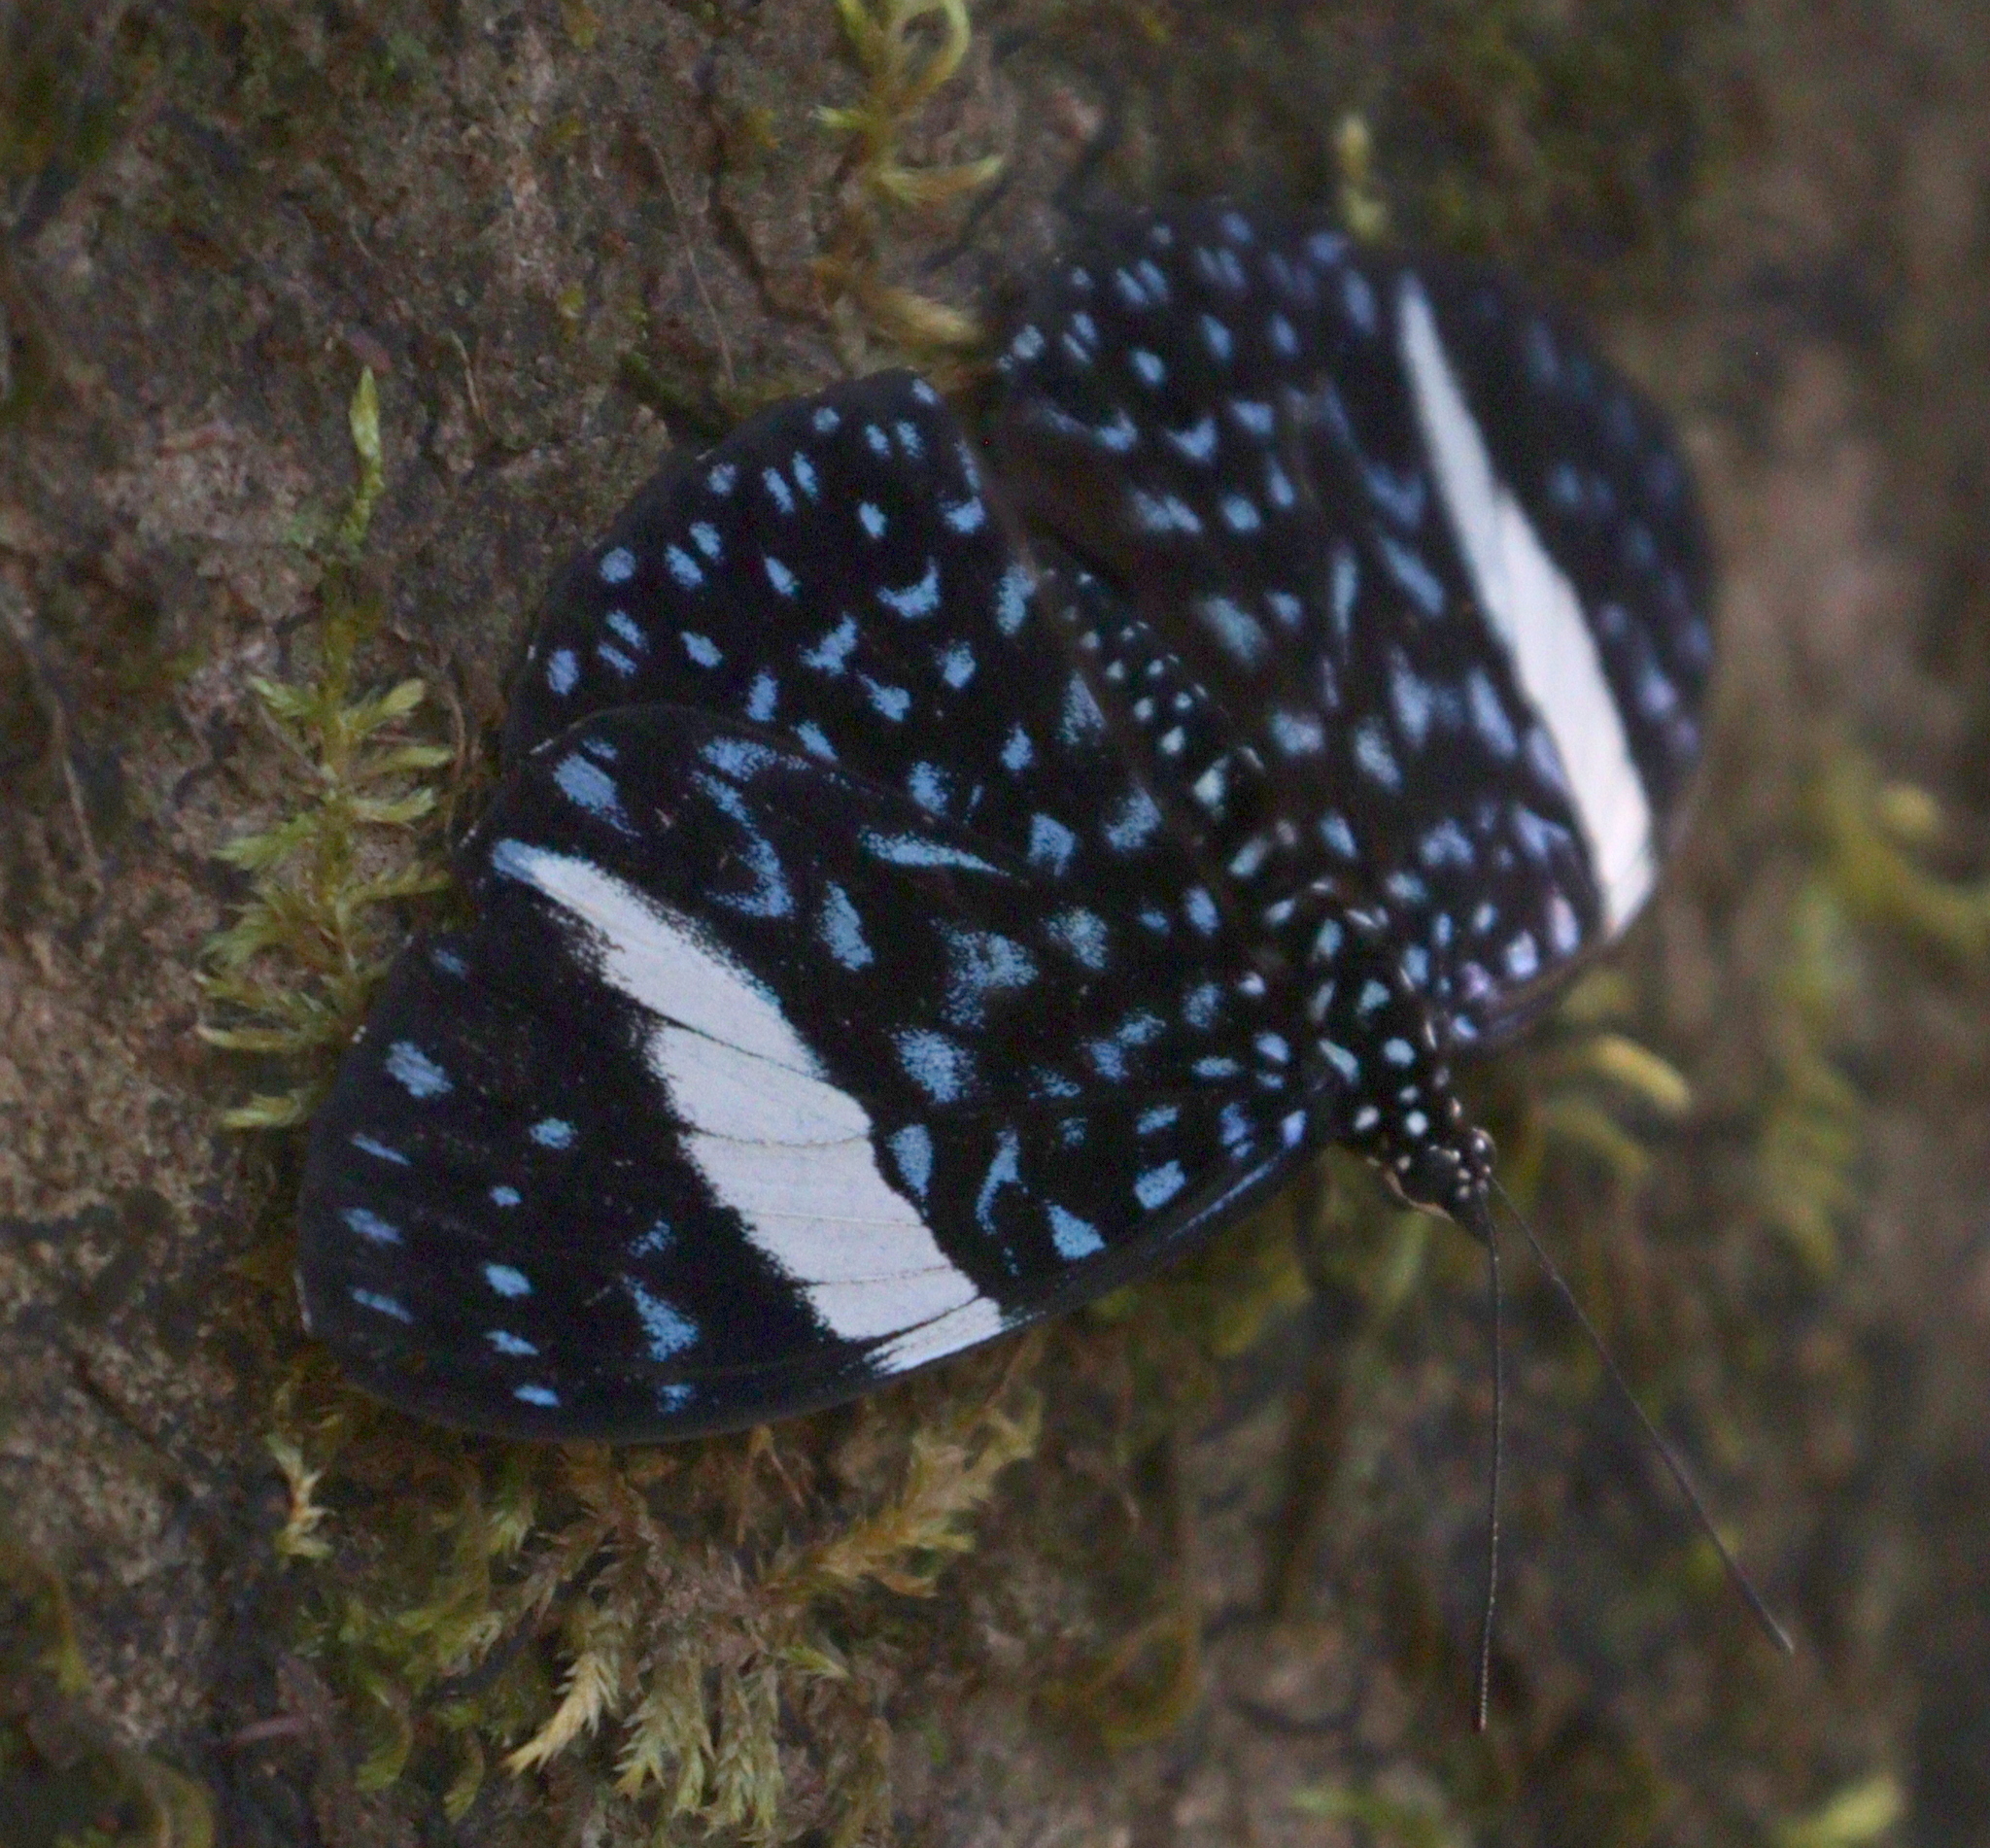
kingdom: Animalia
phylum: Arthropoda
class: Insecta
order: Lepidoptera
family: Nymphalidae
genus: Hamadryas
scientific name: Hamadryas laodamia
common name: Starry night cracker
